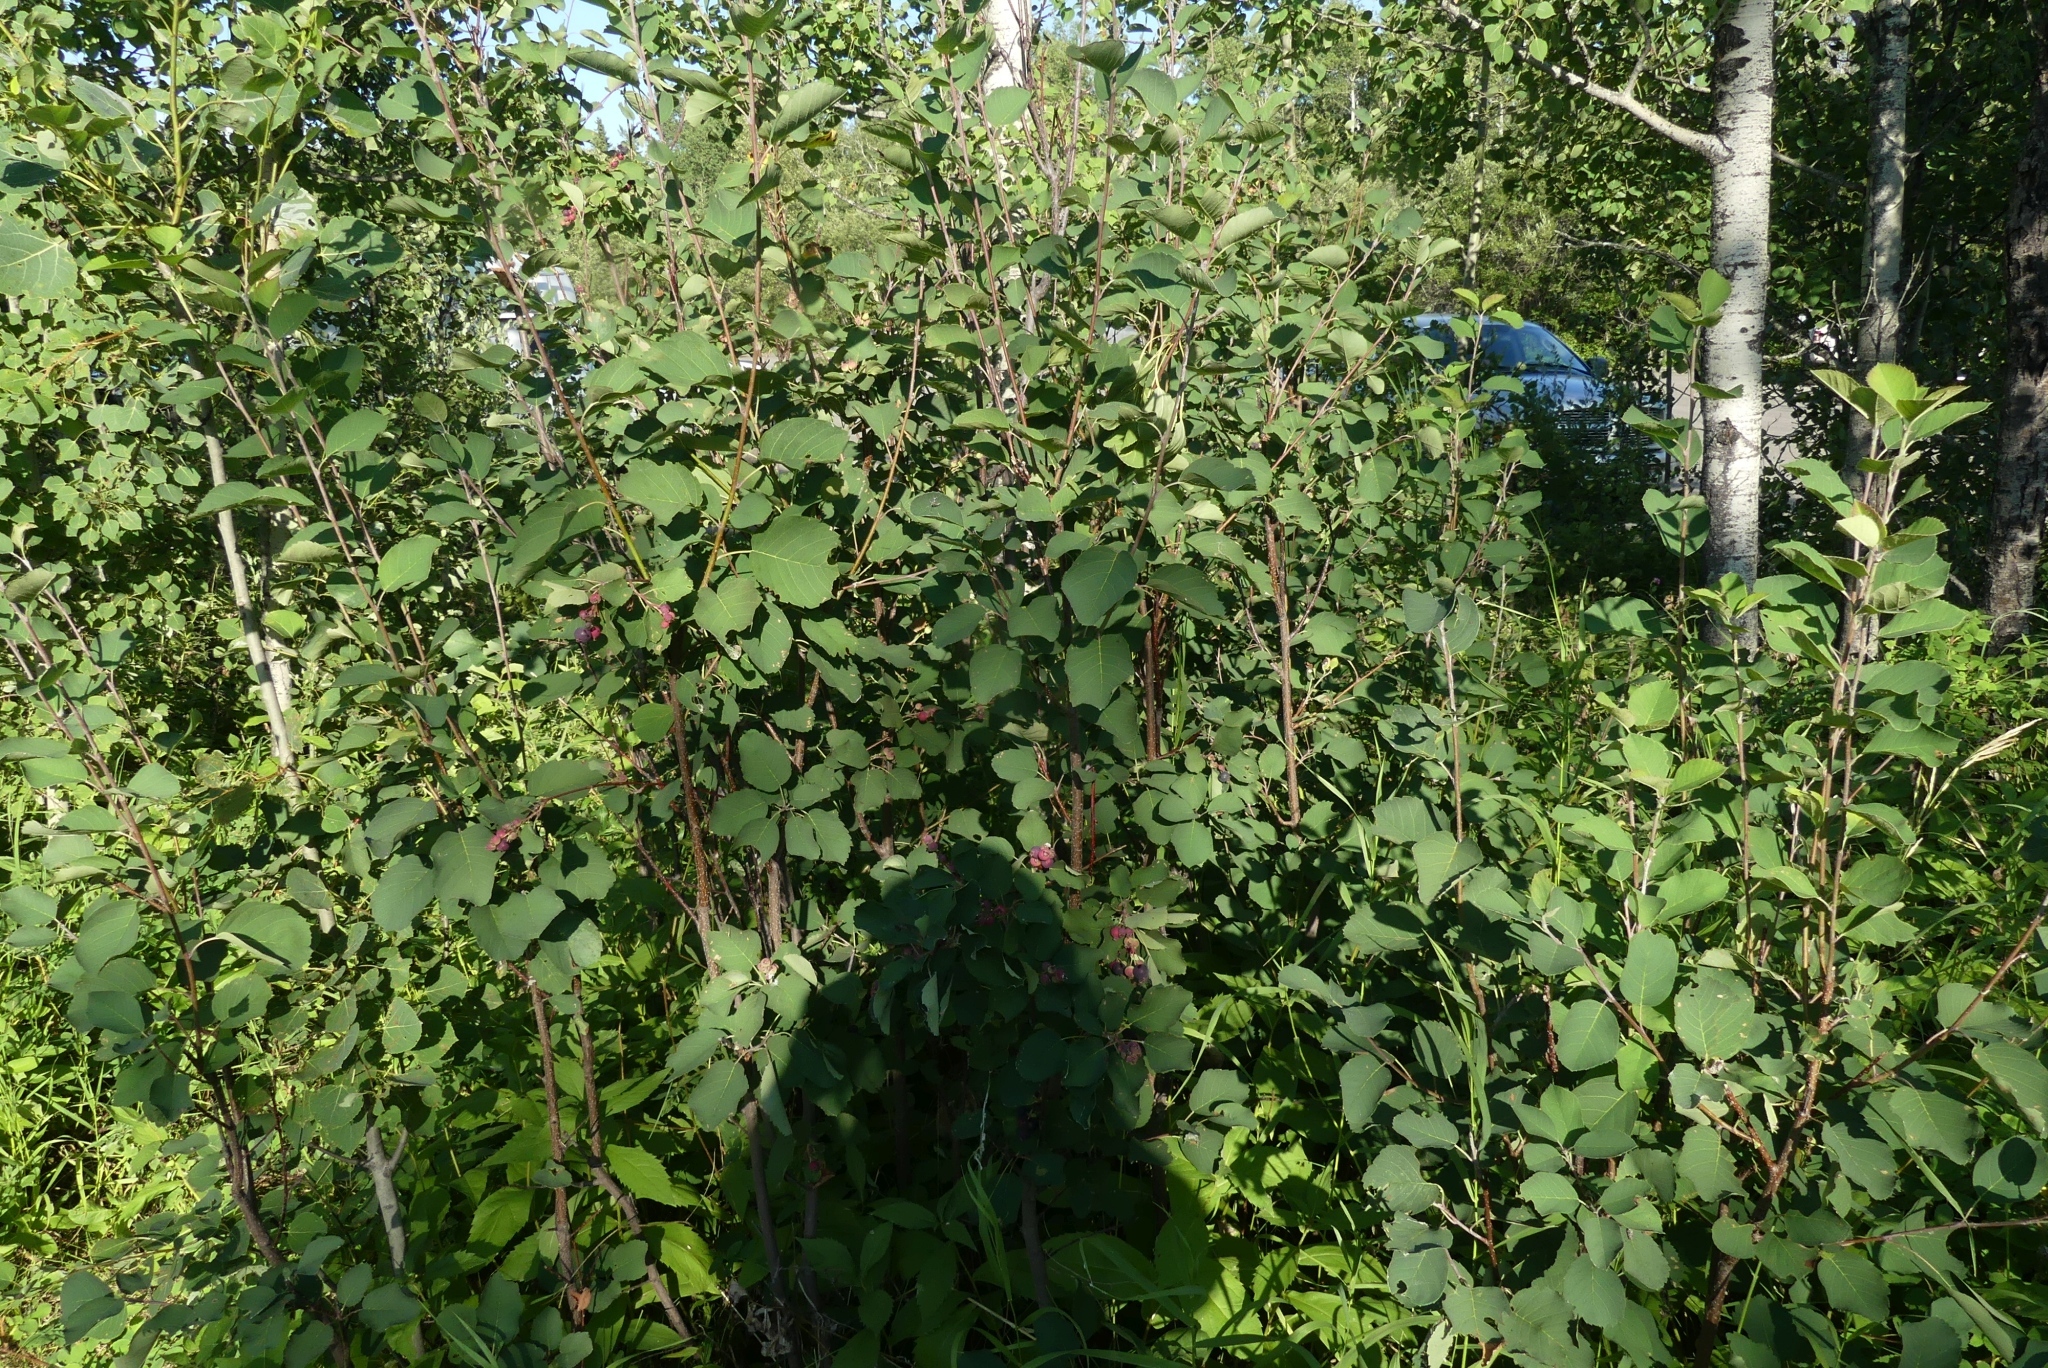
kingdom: Plantae
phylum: Tracheophyta
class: Magnoliopsida
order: Rosales
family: Rosaceae
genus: Amelanchier
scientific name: Amelanchier alnifolia
